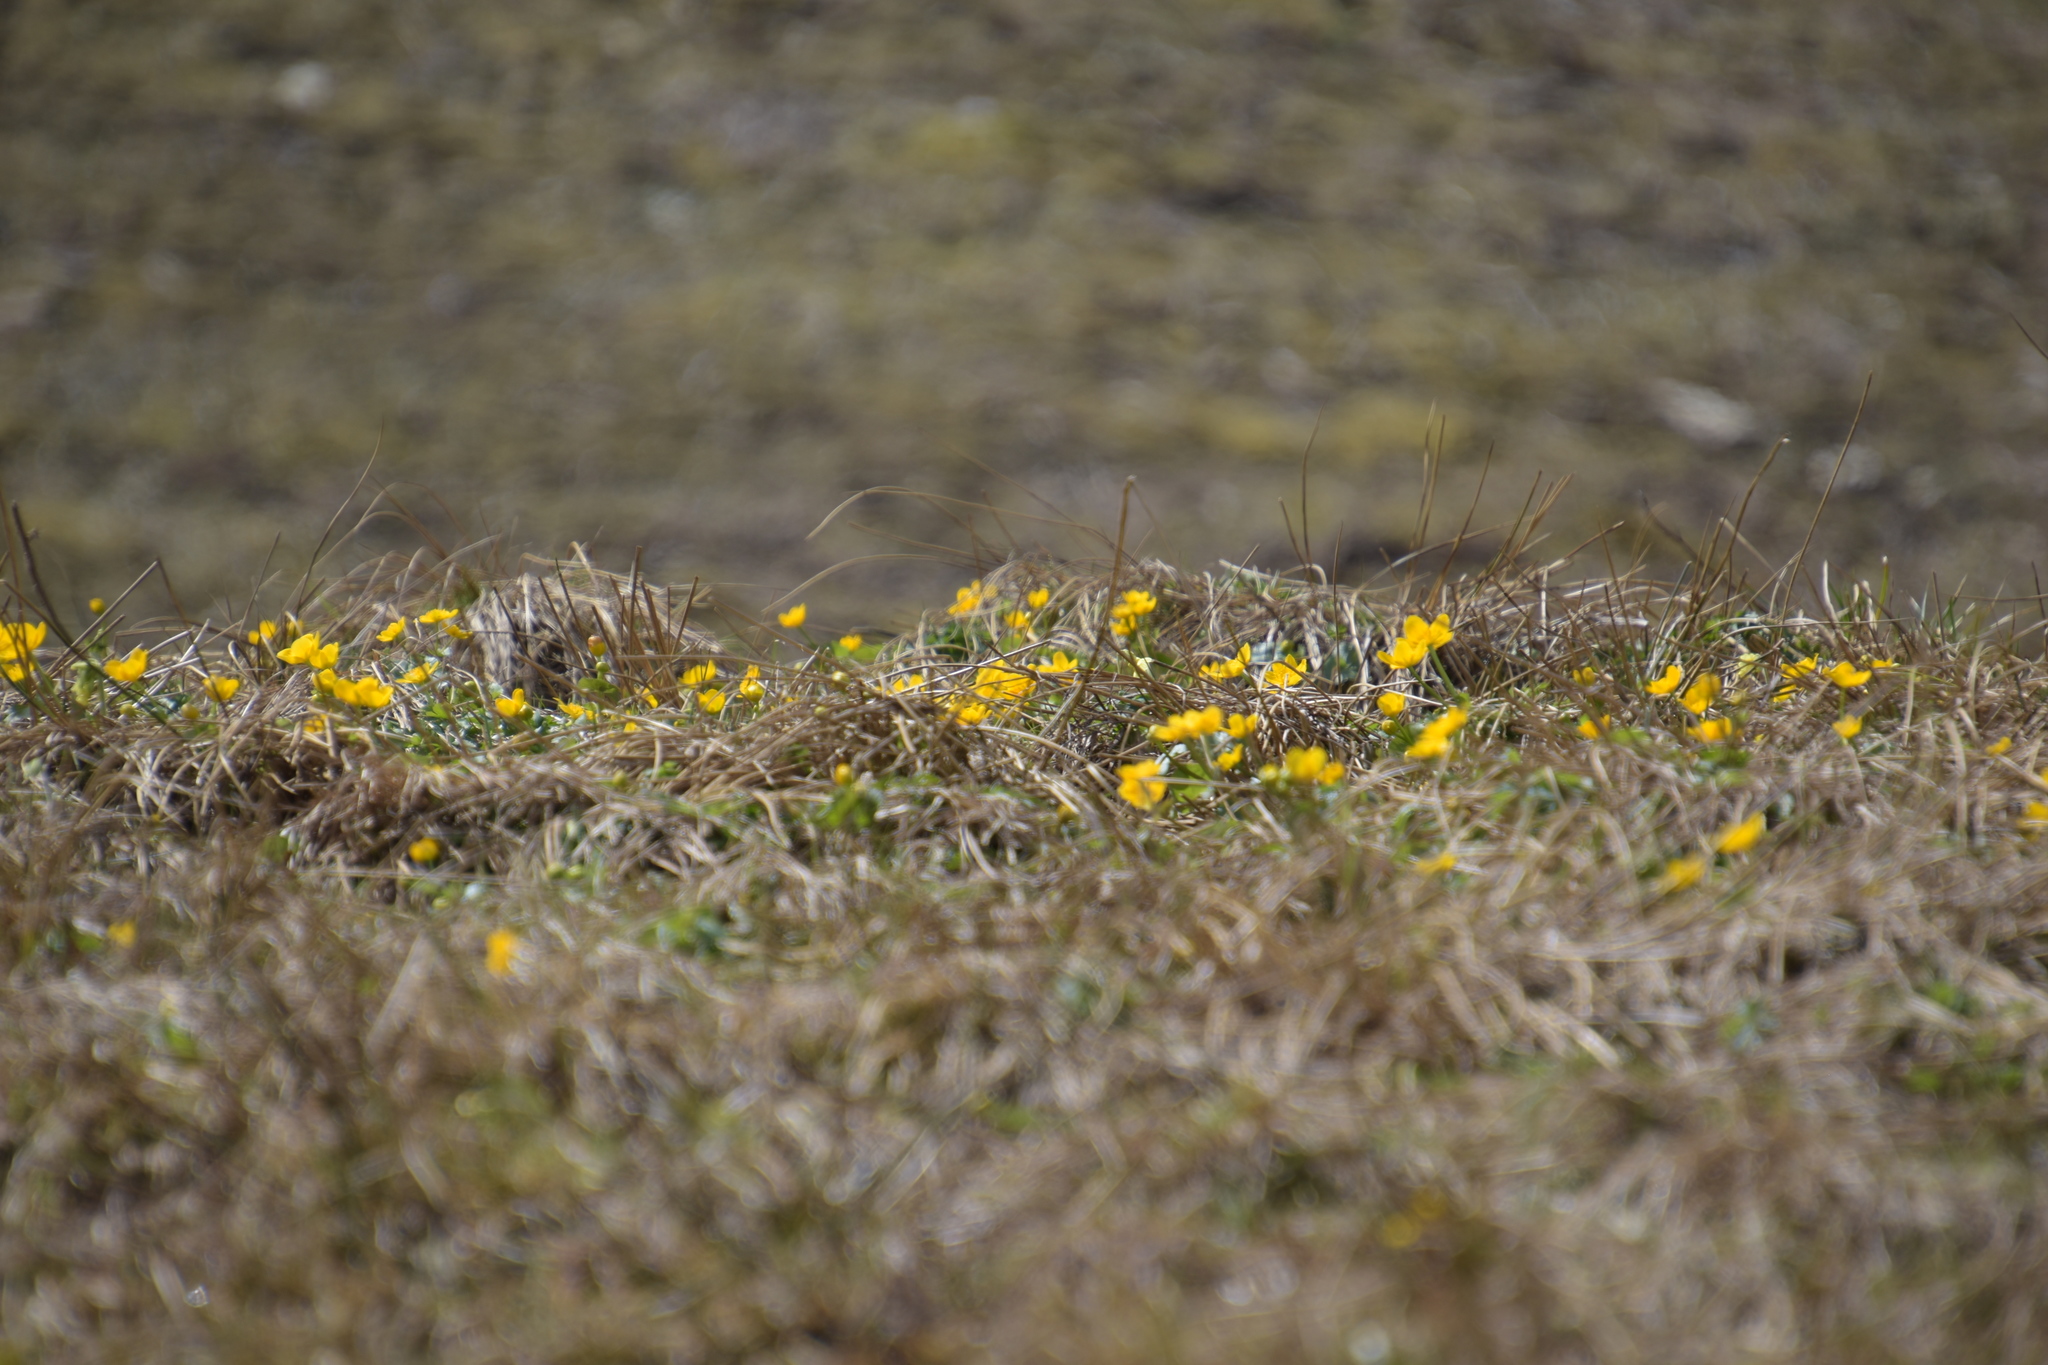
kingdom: Plantae
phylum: Tracheophyta
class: Magnoliopsida
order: Ranunculales
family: Ranunculaceae
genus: Caltha
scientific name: Caltha palustris
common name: Marsh marigold
